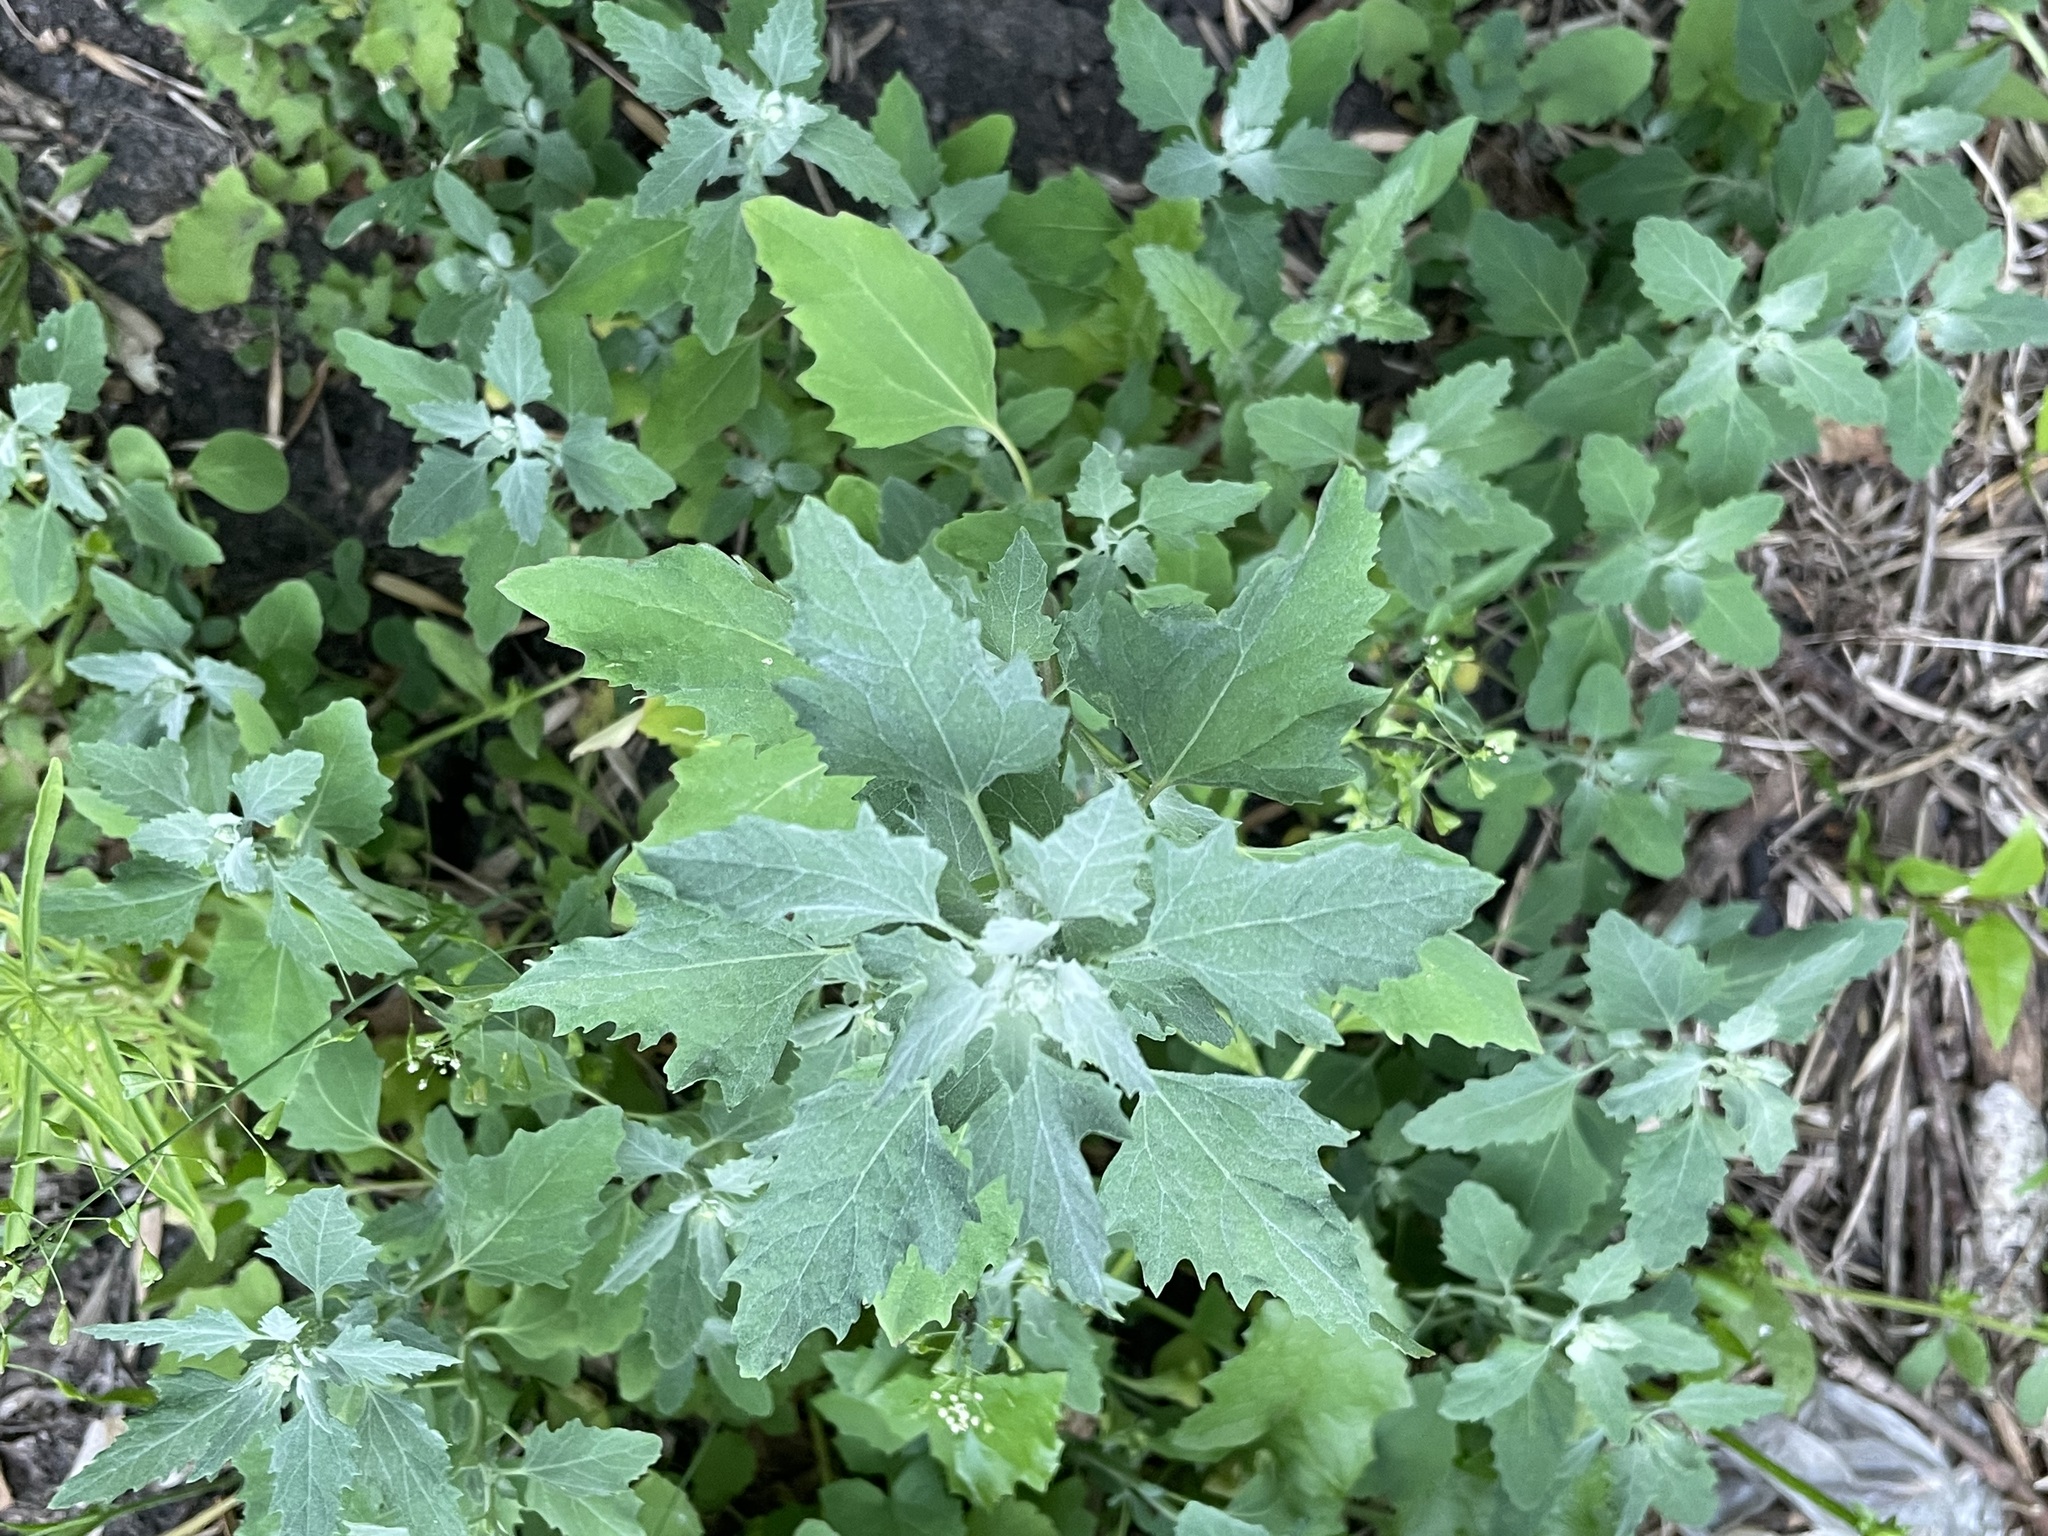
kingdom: Plantae
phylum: Tracheophyta
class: Magnoliopsida
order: Caryophyllales
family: Amaranthaceae
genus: Chenopodium
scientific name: Chenopodium album
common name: Fat-hen
